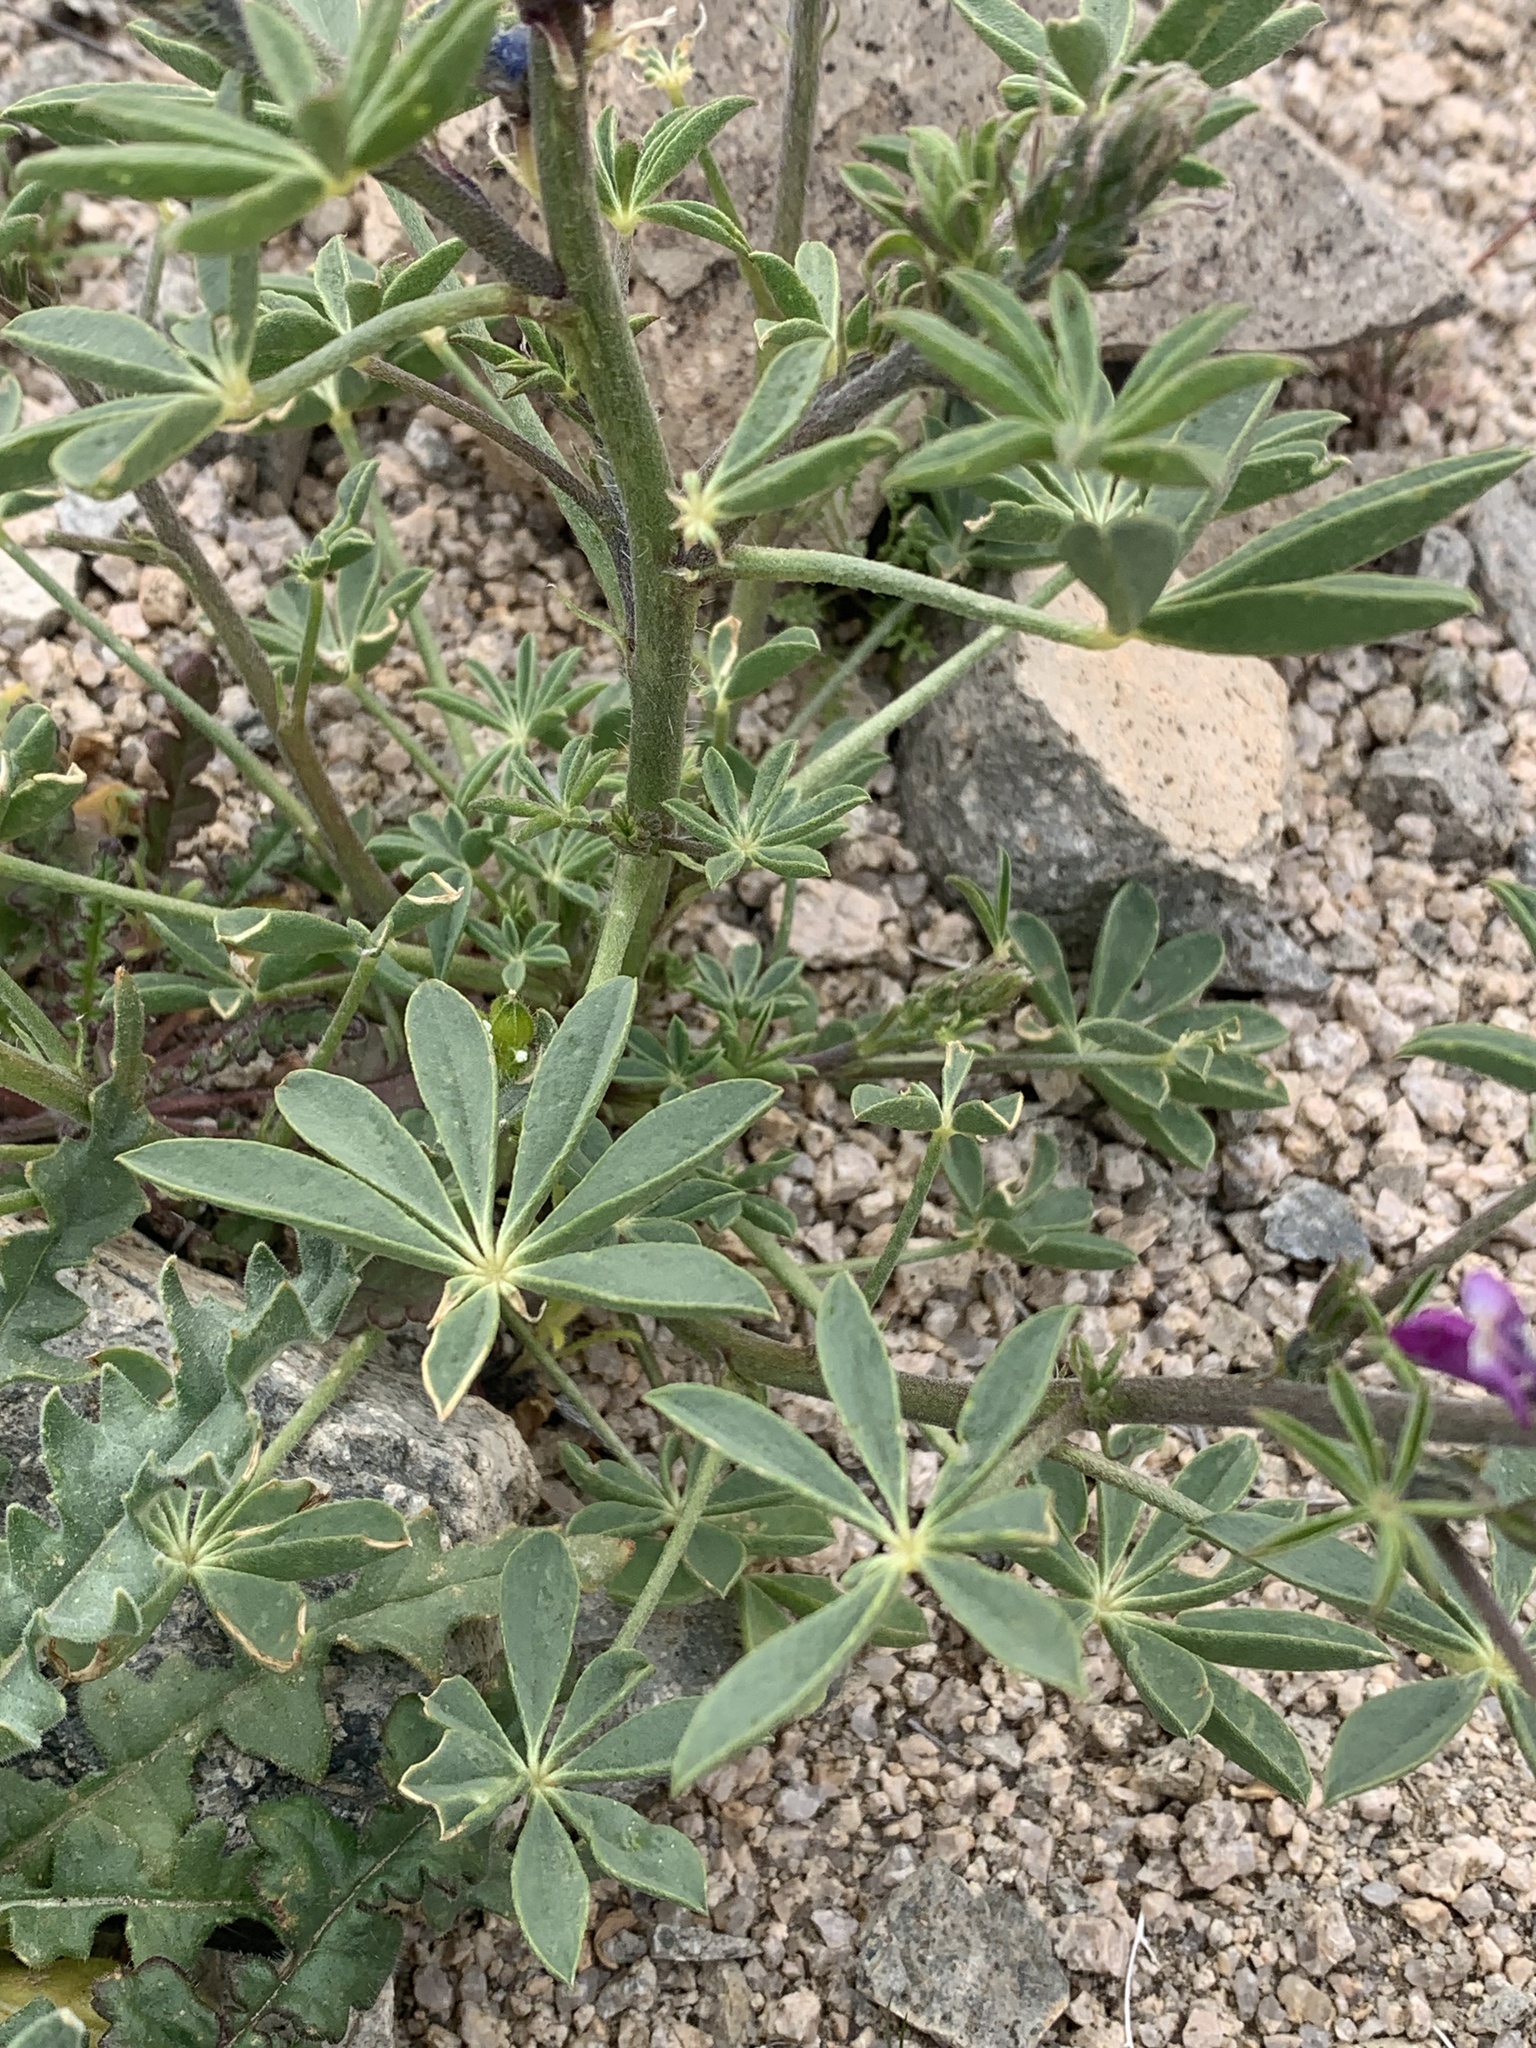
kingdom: Plantae
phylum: Tracheophyta
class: Magnoliopsida
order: Fabales
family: Fabaceae
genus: Lupinus
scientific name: Lupinus arizonicus
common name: Arizona lupine
